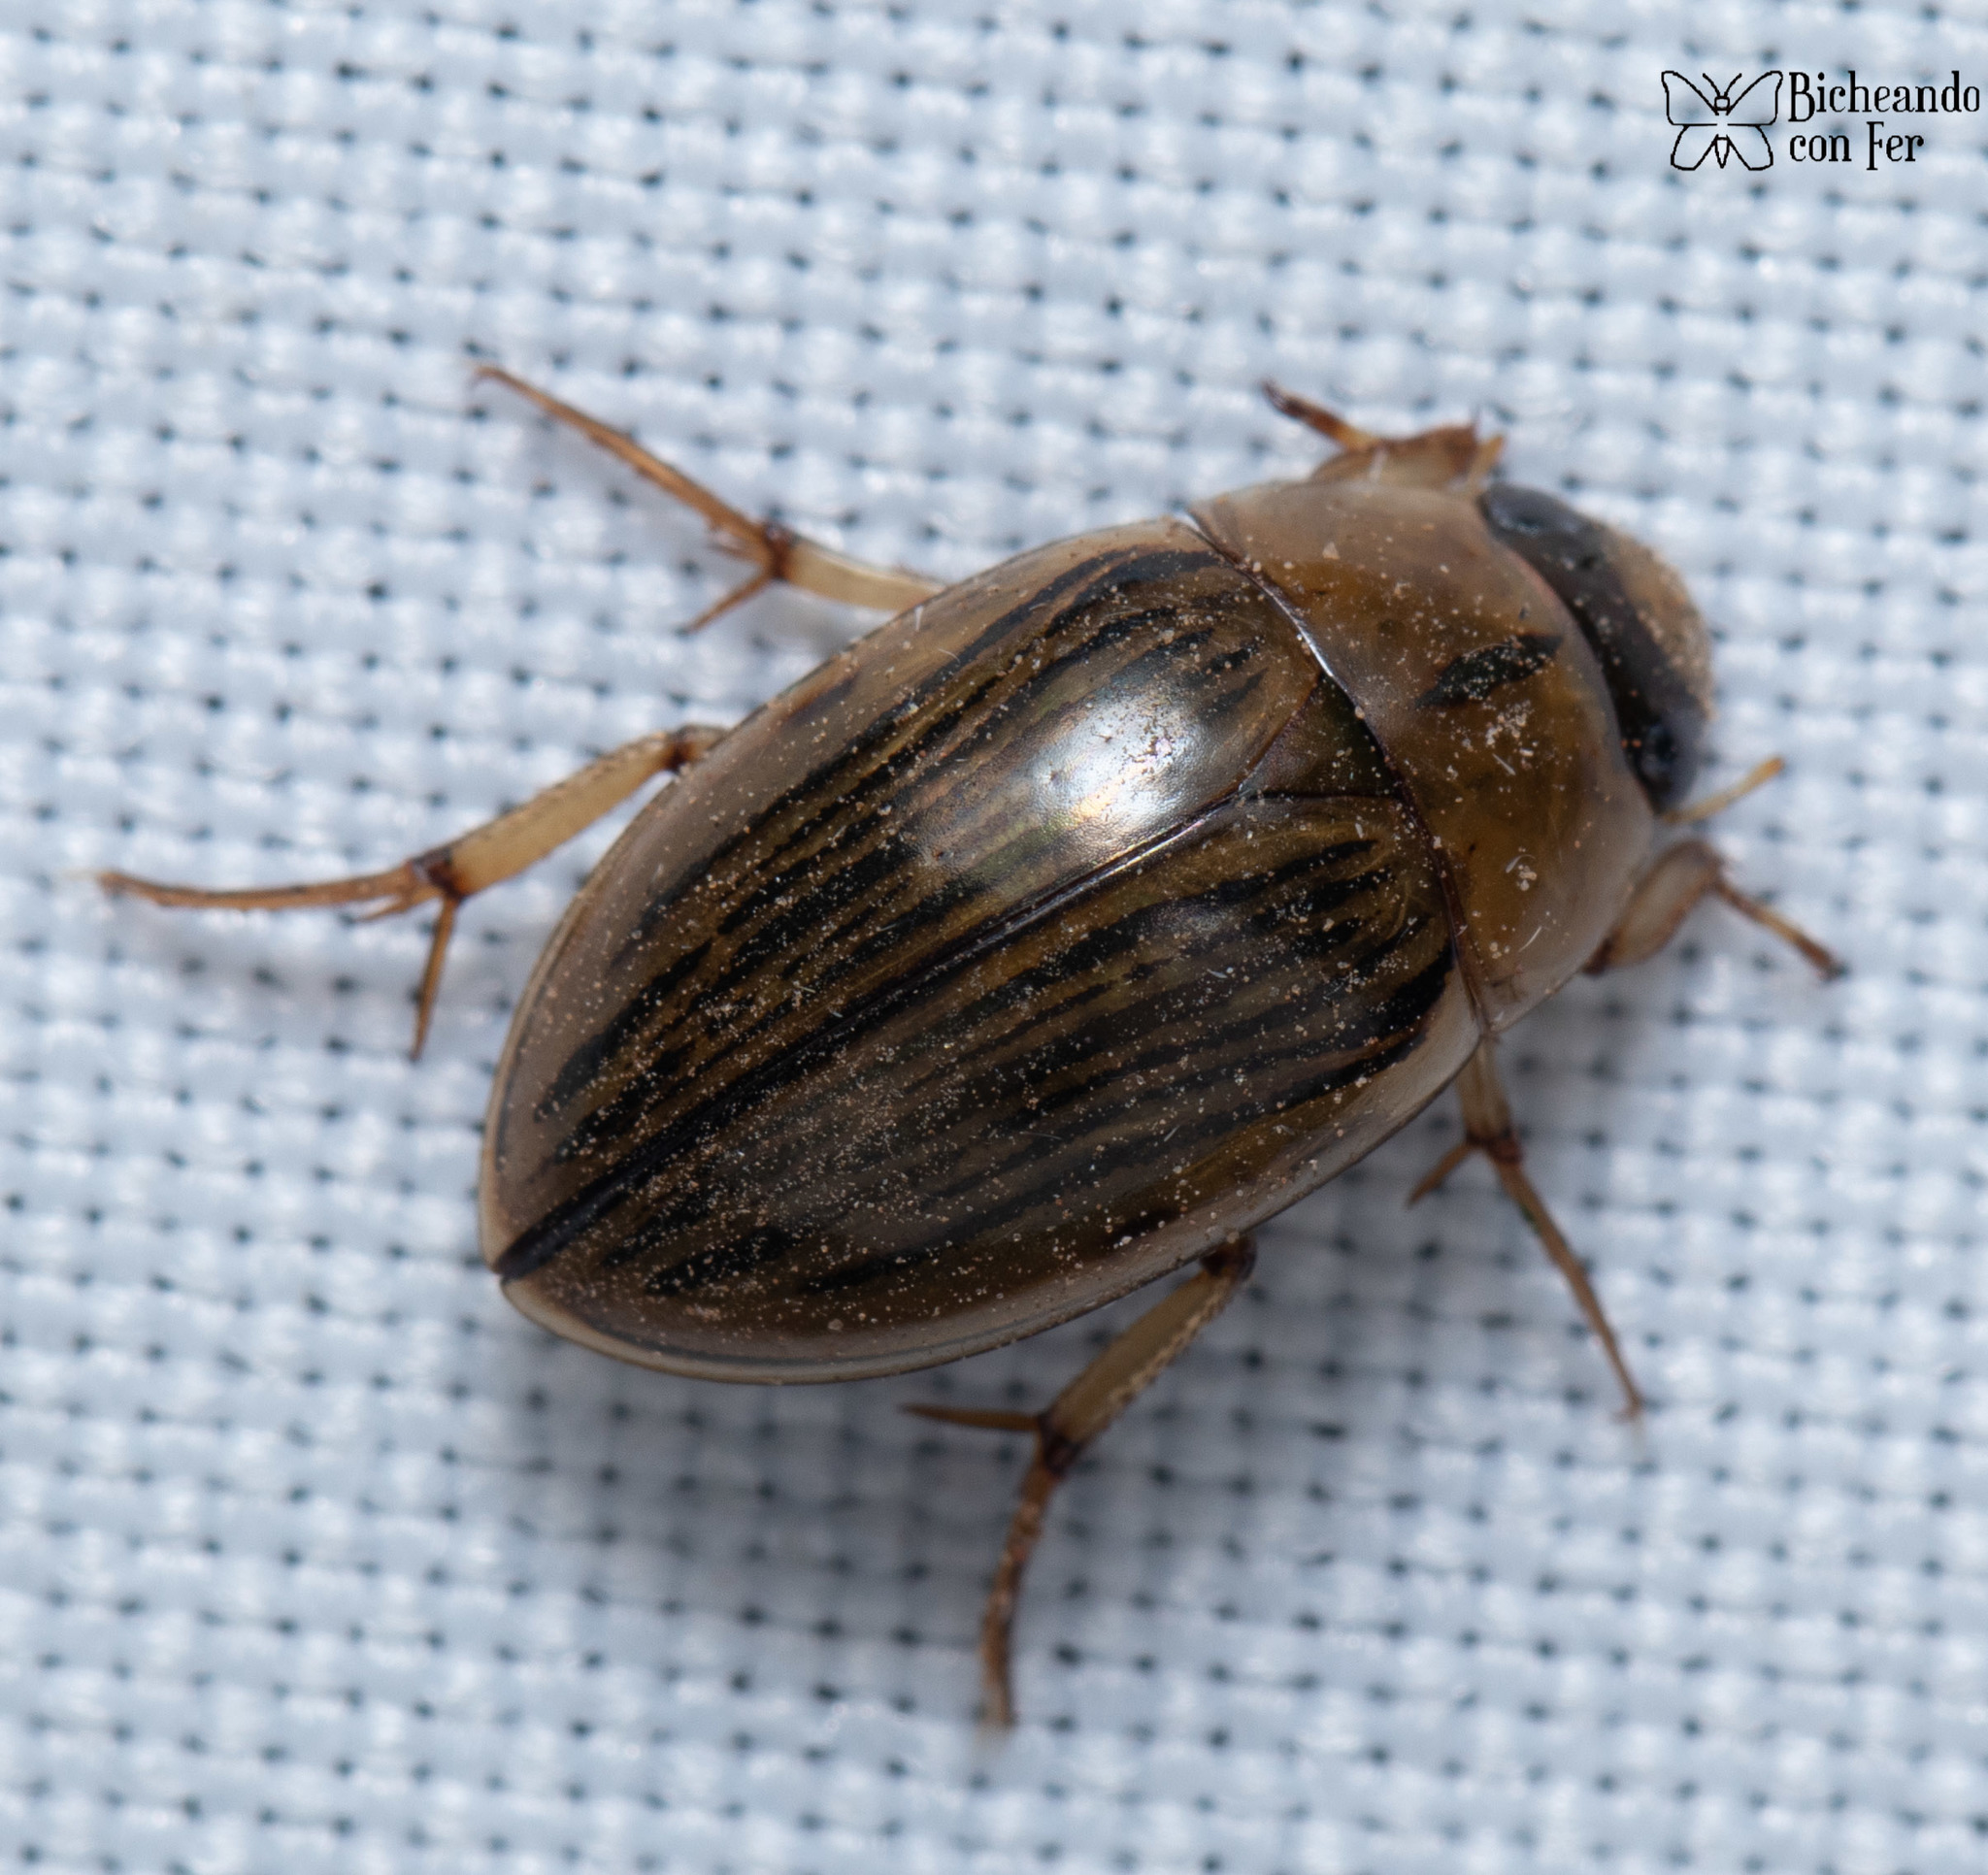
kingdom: Animalia
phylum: Arthropoda
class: Insecta
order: Coleoptera
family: Hydrophilidae
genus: Tropisternus
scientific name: Tropisternus collaris
